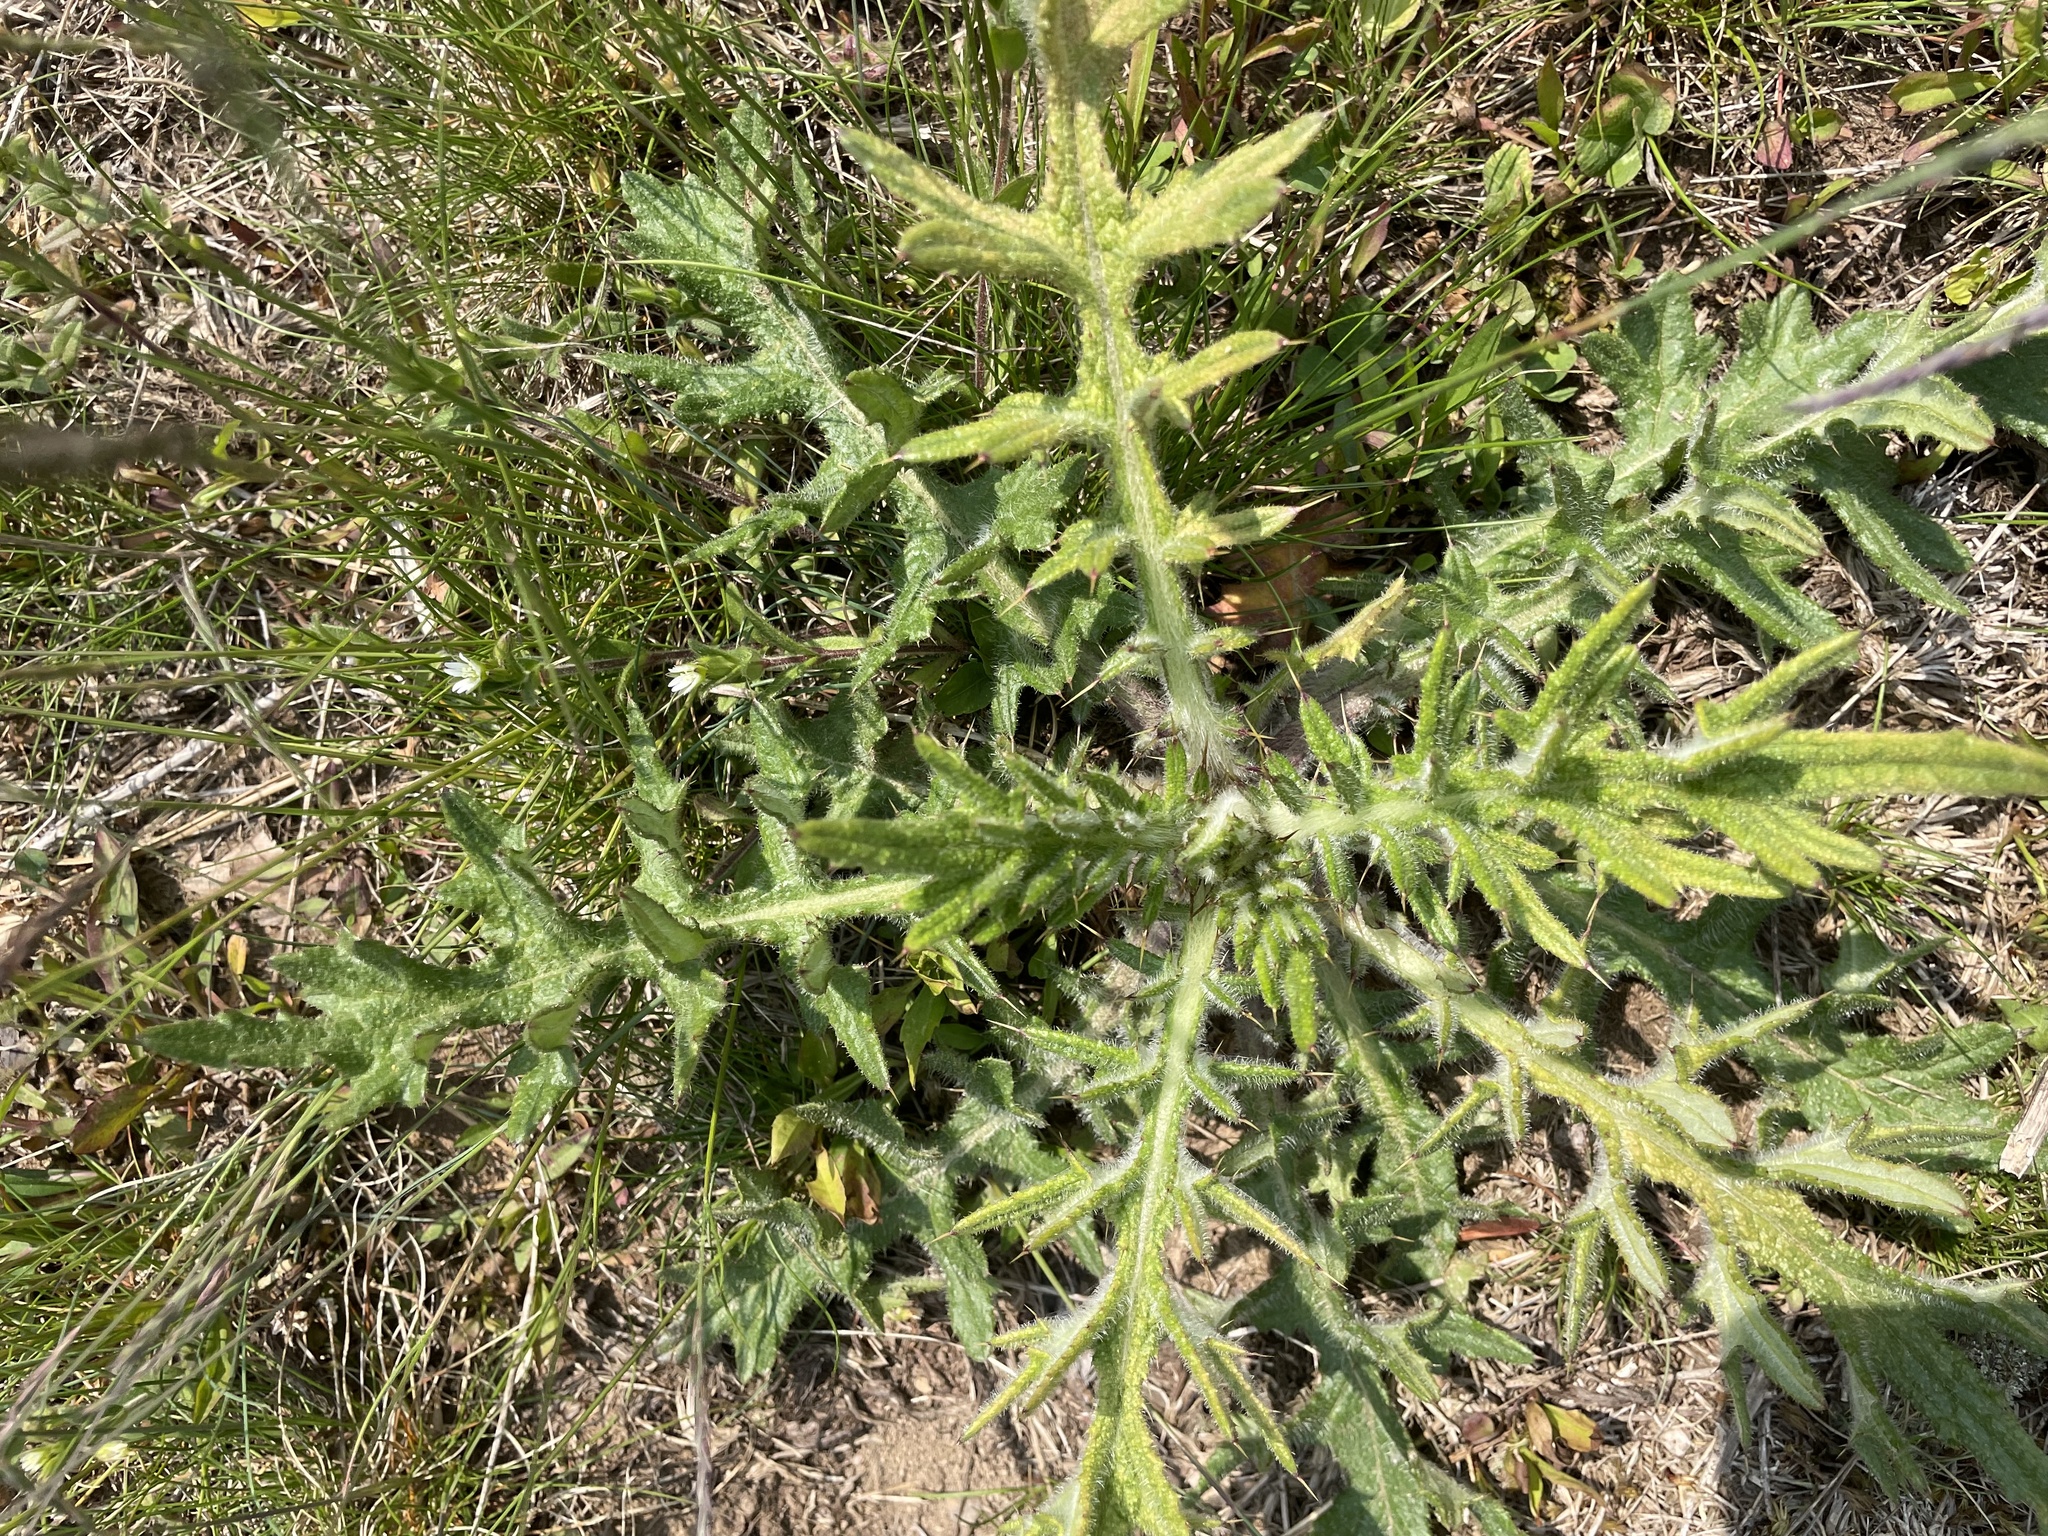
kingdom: Plantae
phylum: Tracheophyta
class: Magnoliopsida
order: Asterales
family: Asteraceae
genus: Cirsium
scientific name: Cirsium vulgare
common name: Bull thistle
